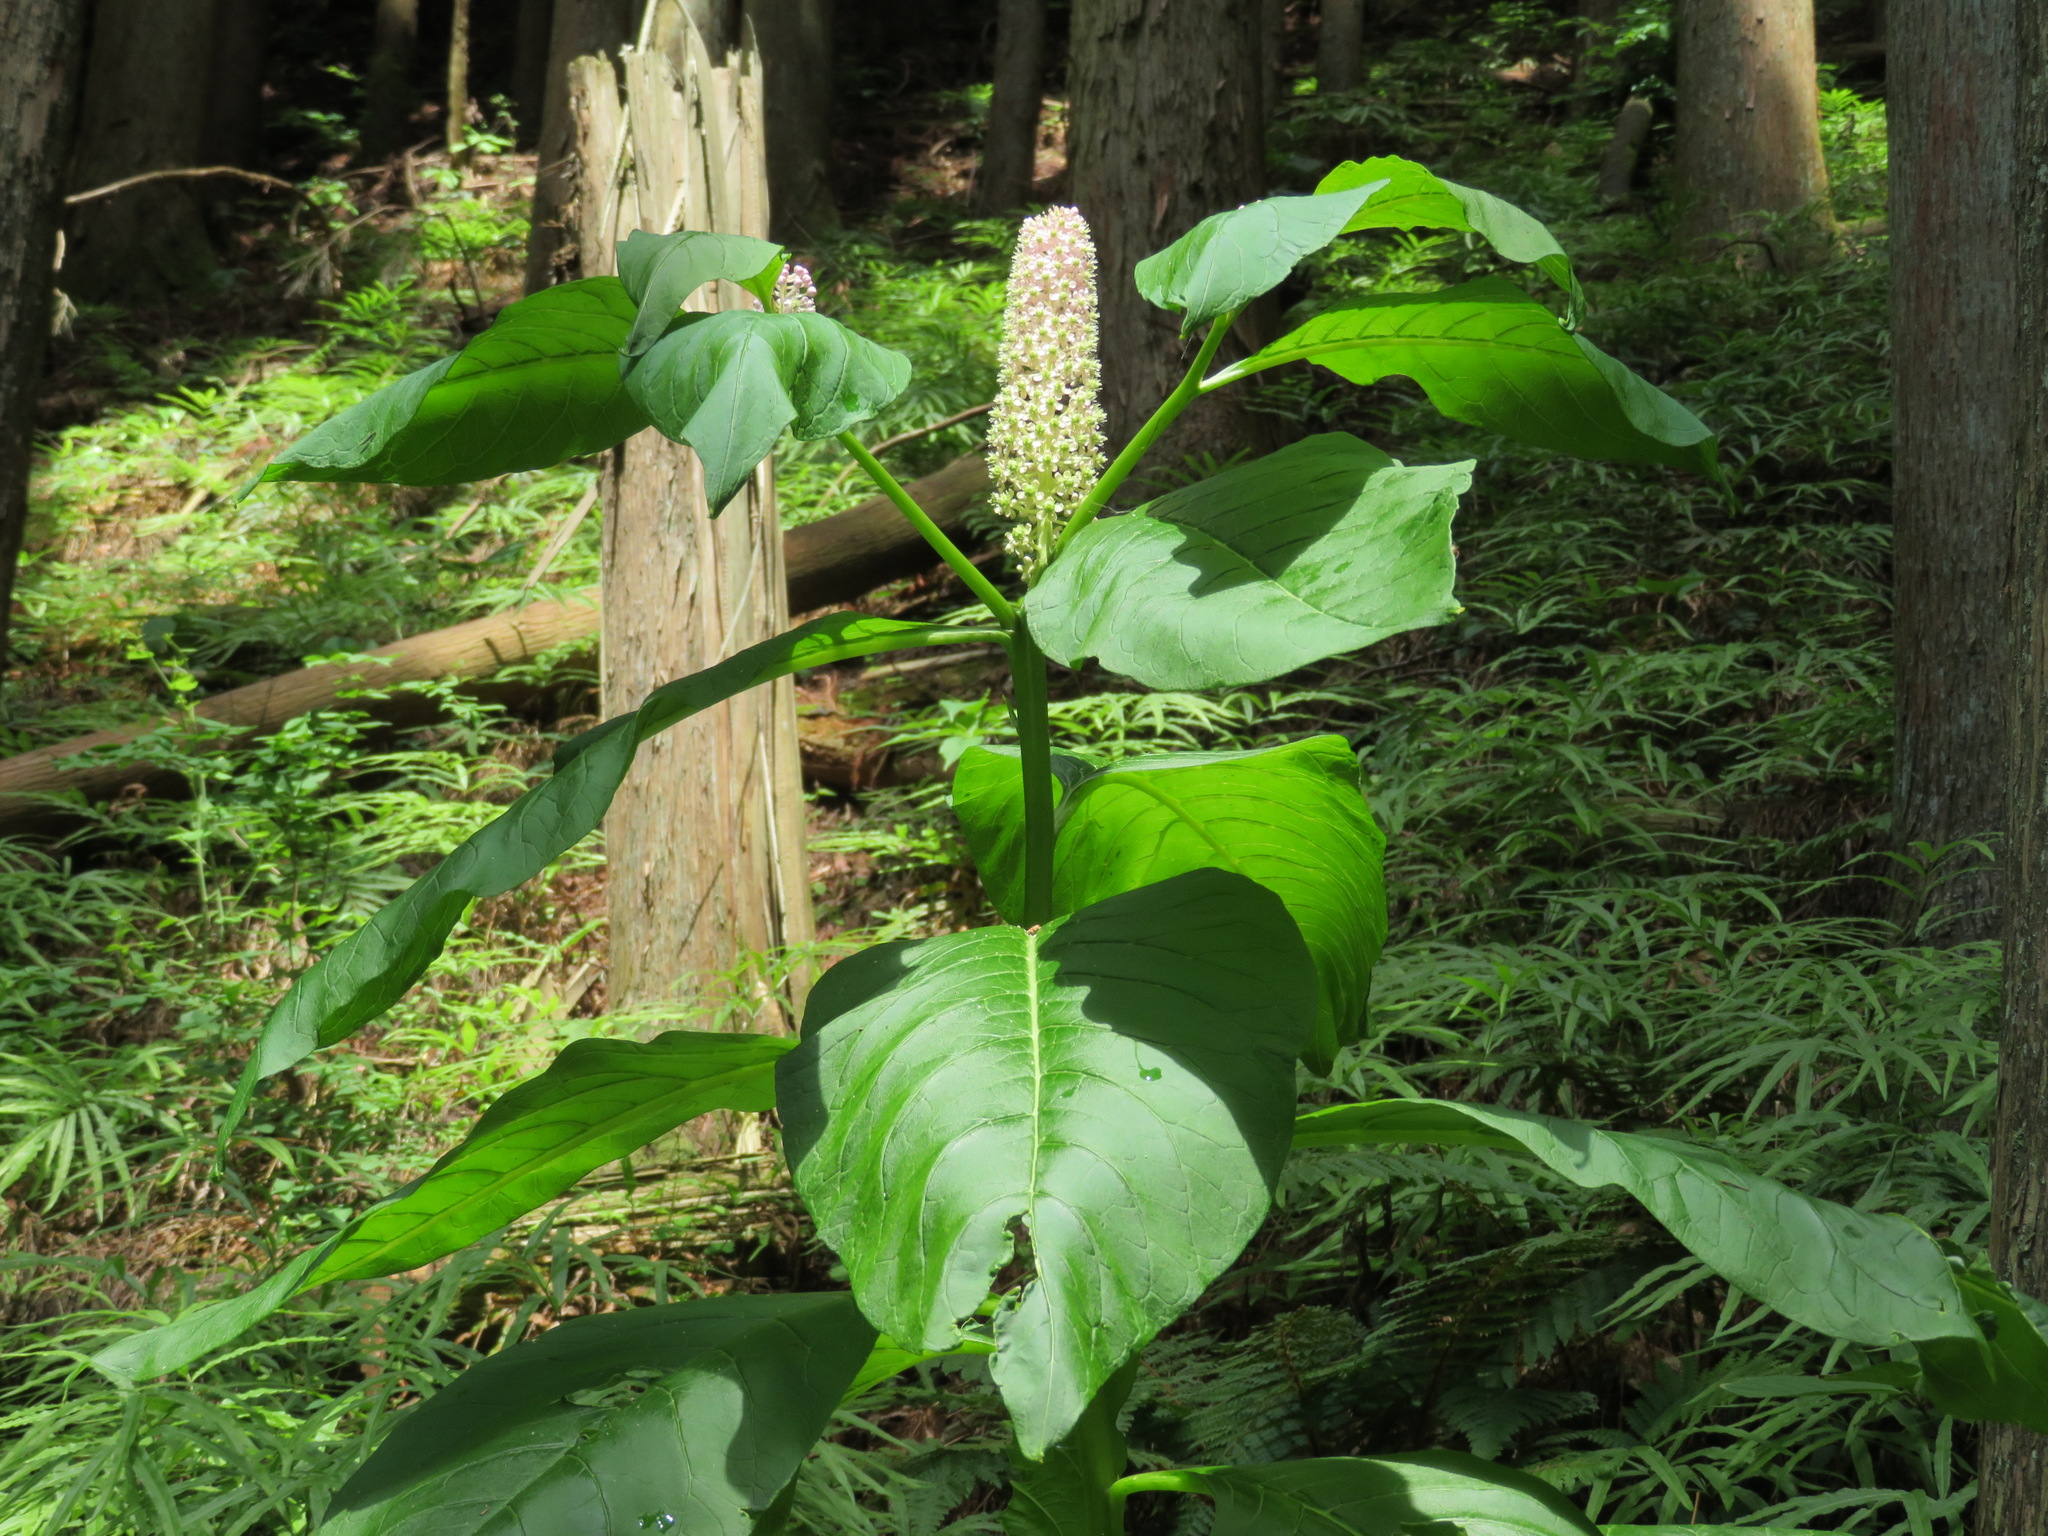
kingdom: Plantae
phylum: Tracheophyta
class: Magnoliopsida
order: Caryophyllales
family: Phytolaccaceae
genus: Phytolacca
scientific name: Phytolacca japonica
